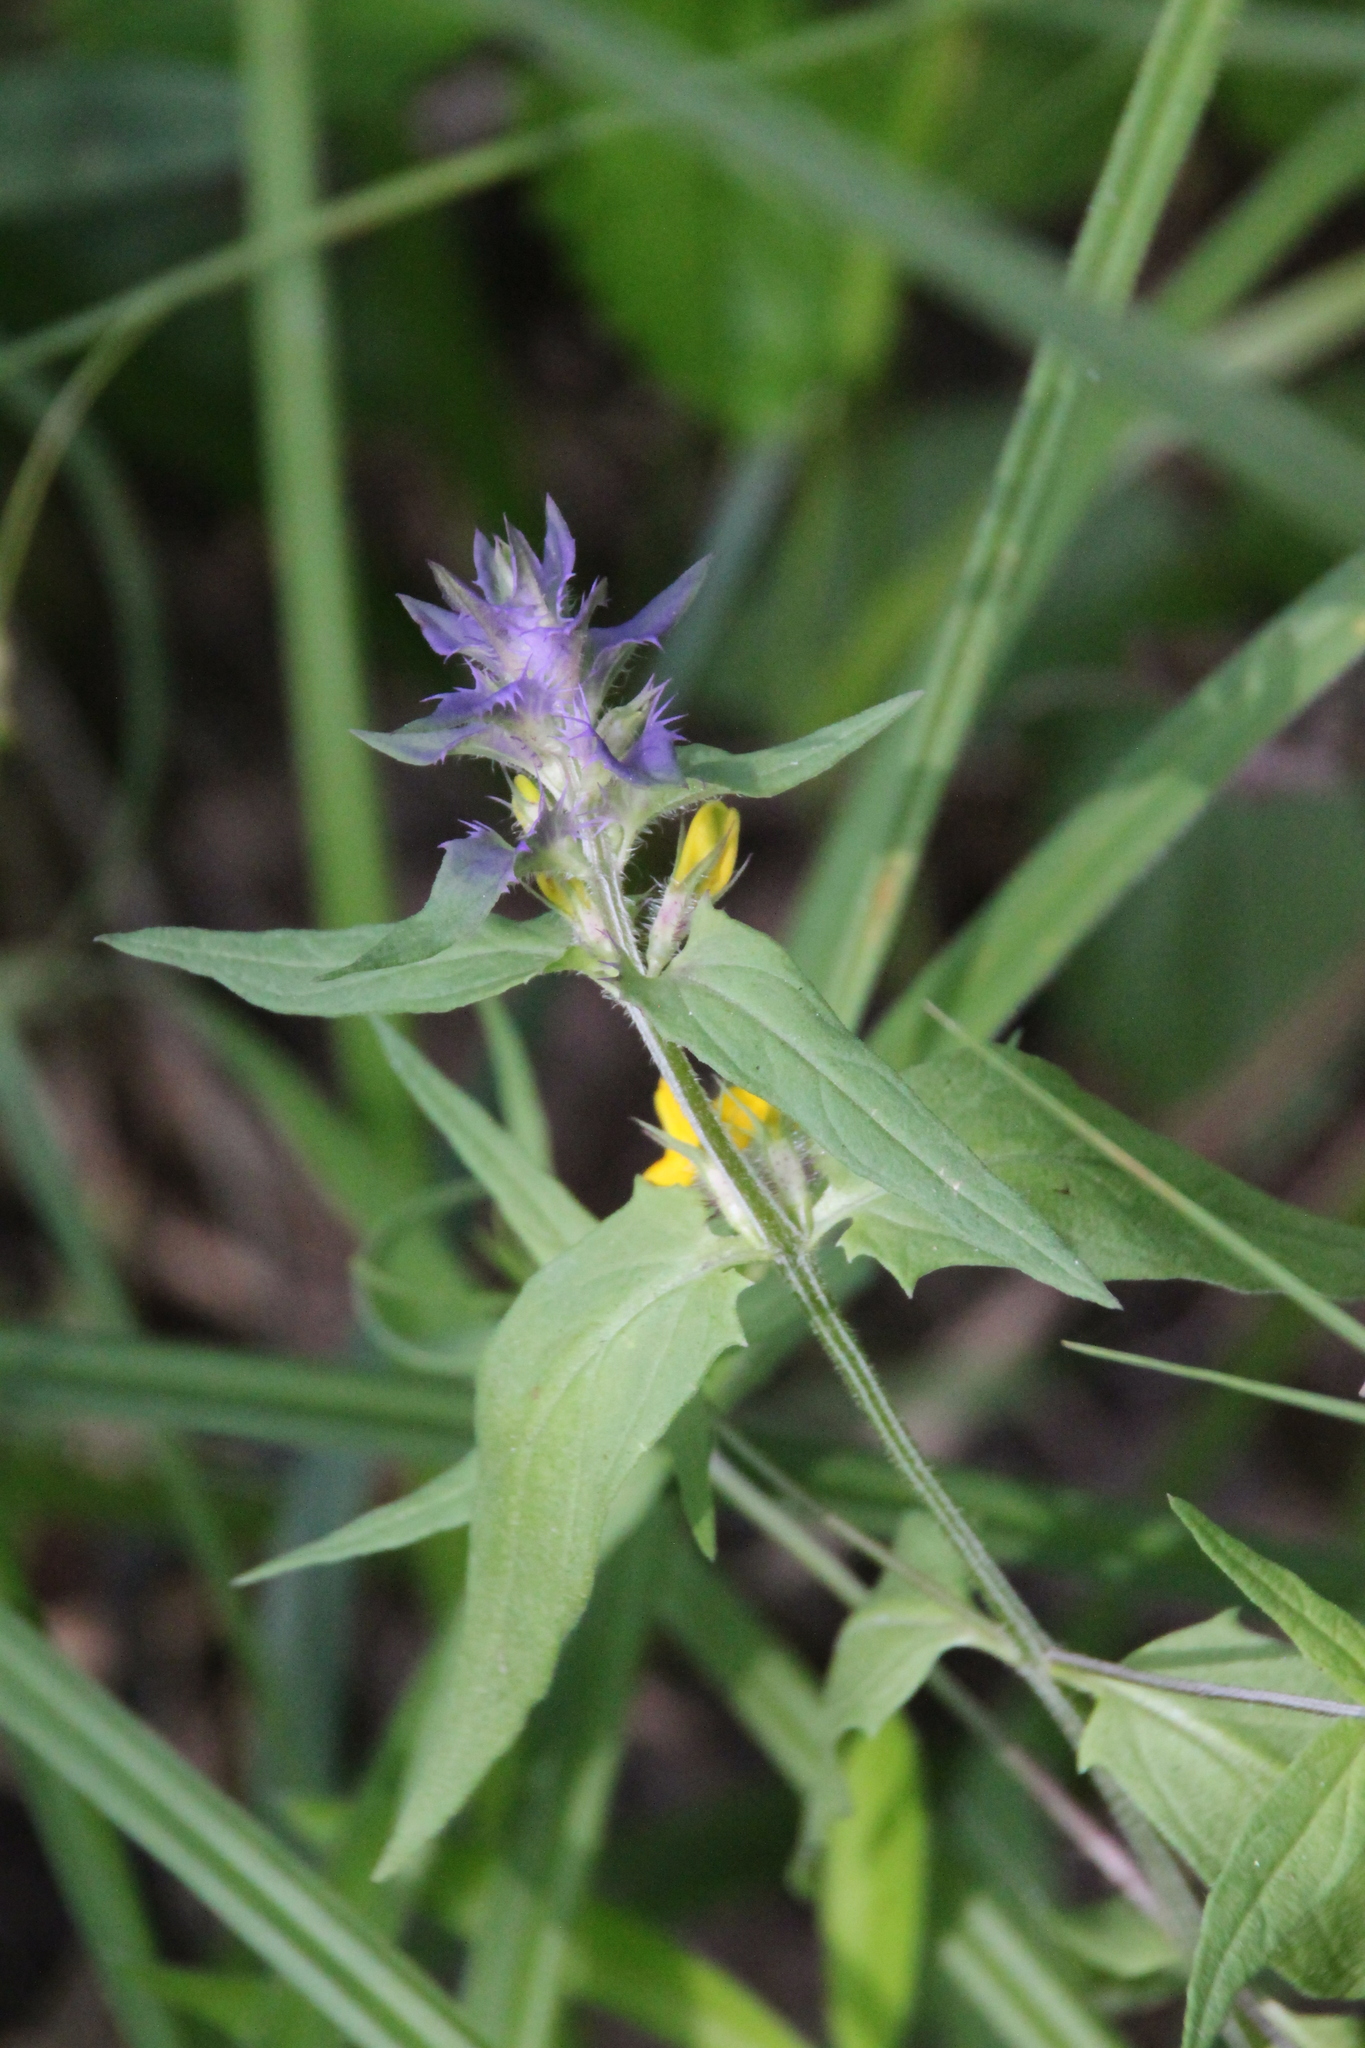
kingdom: Plantae
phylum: Tracheophyta
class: Magnoliopsida
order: Lamiales
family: Orobanchaceae
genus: Melampyrum
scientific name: Melampyrum nemorosum
